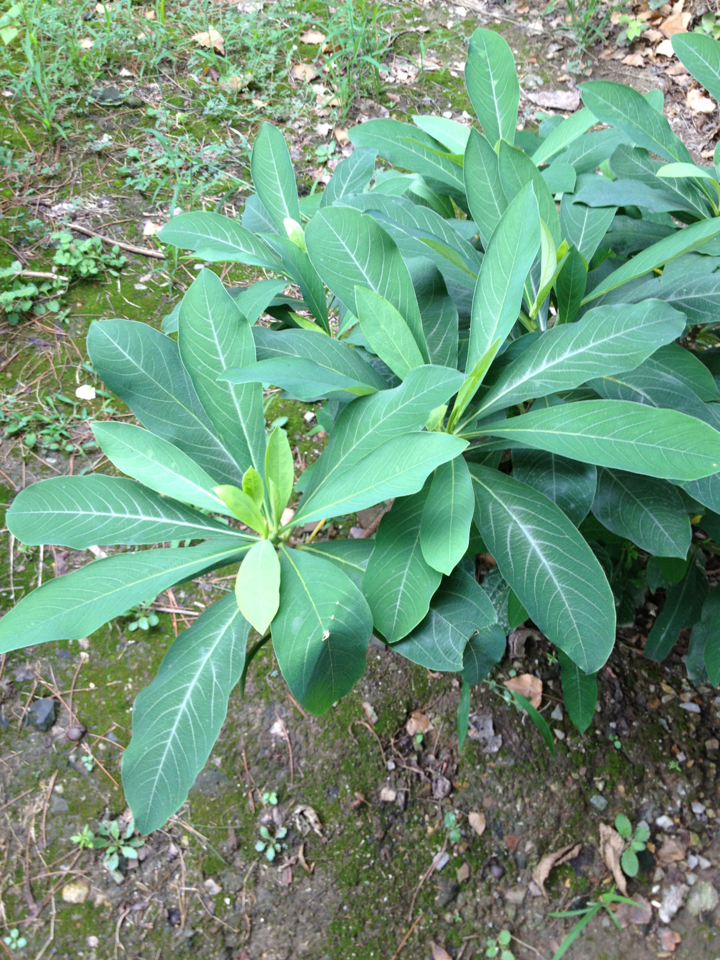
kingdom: Plantae
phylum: Tracheophyta
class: Magnoliopsida
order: Malvales
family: Thymelaeaceae
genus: Edgeworthia
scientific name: Edgeworthia chrysantha
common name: Oriental paperbush
